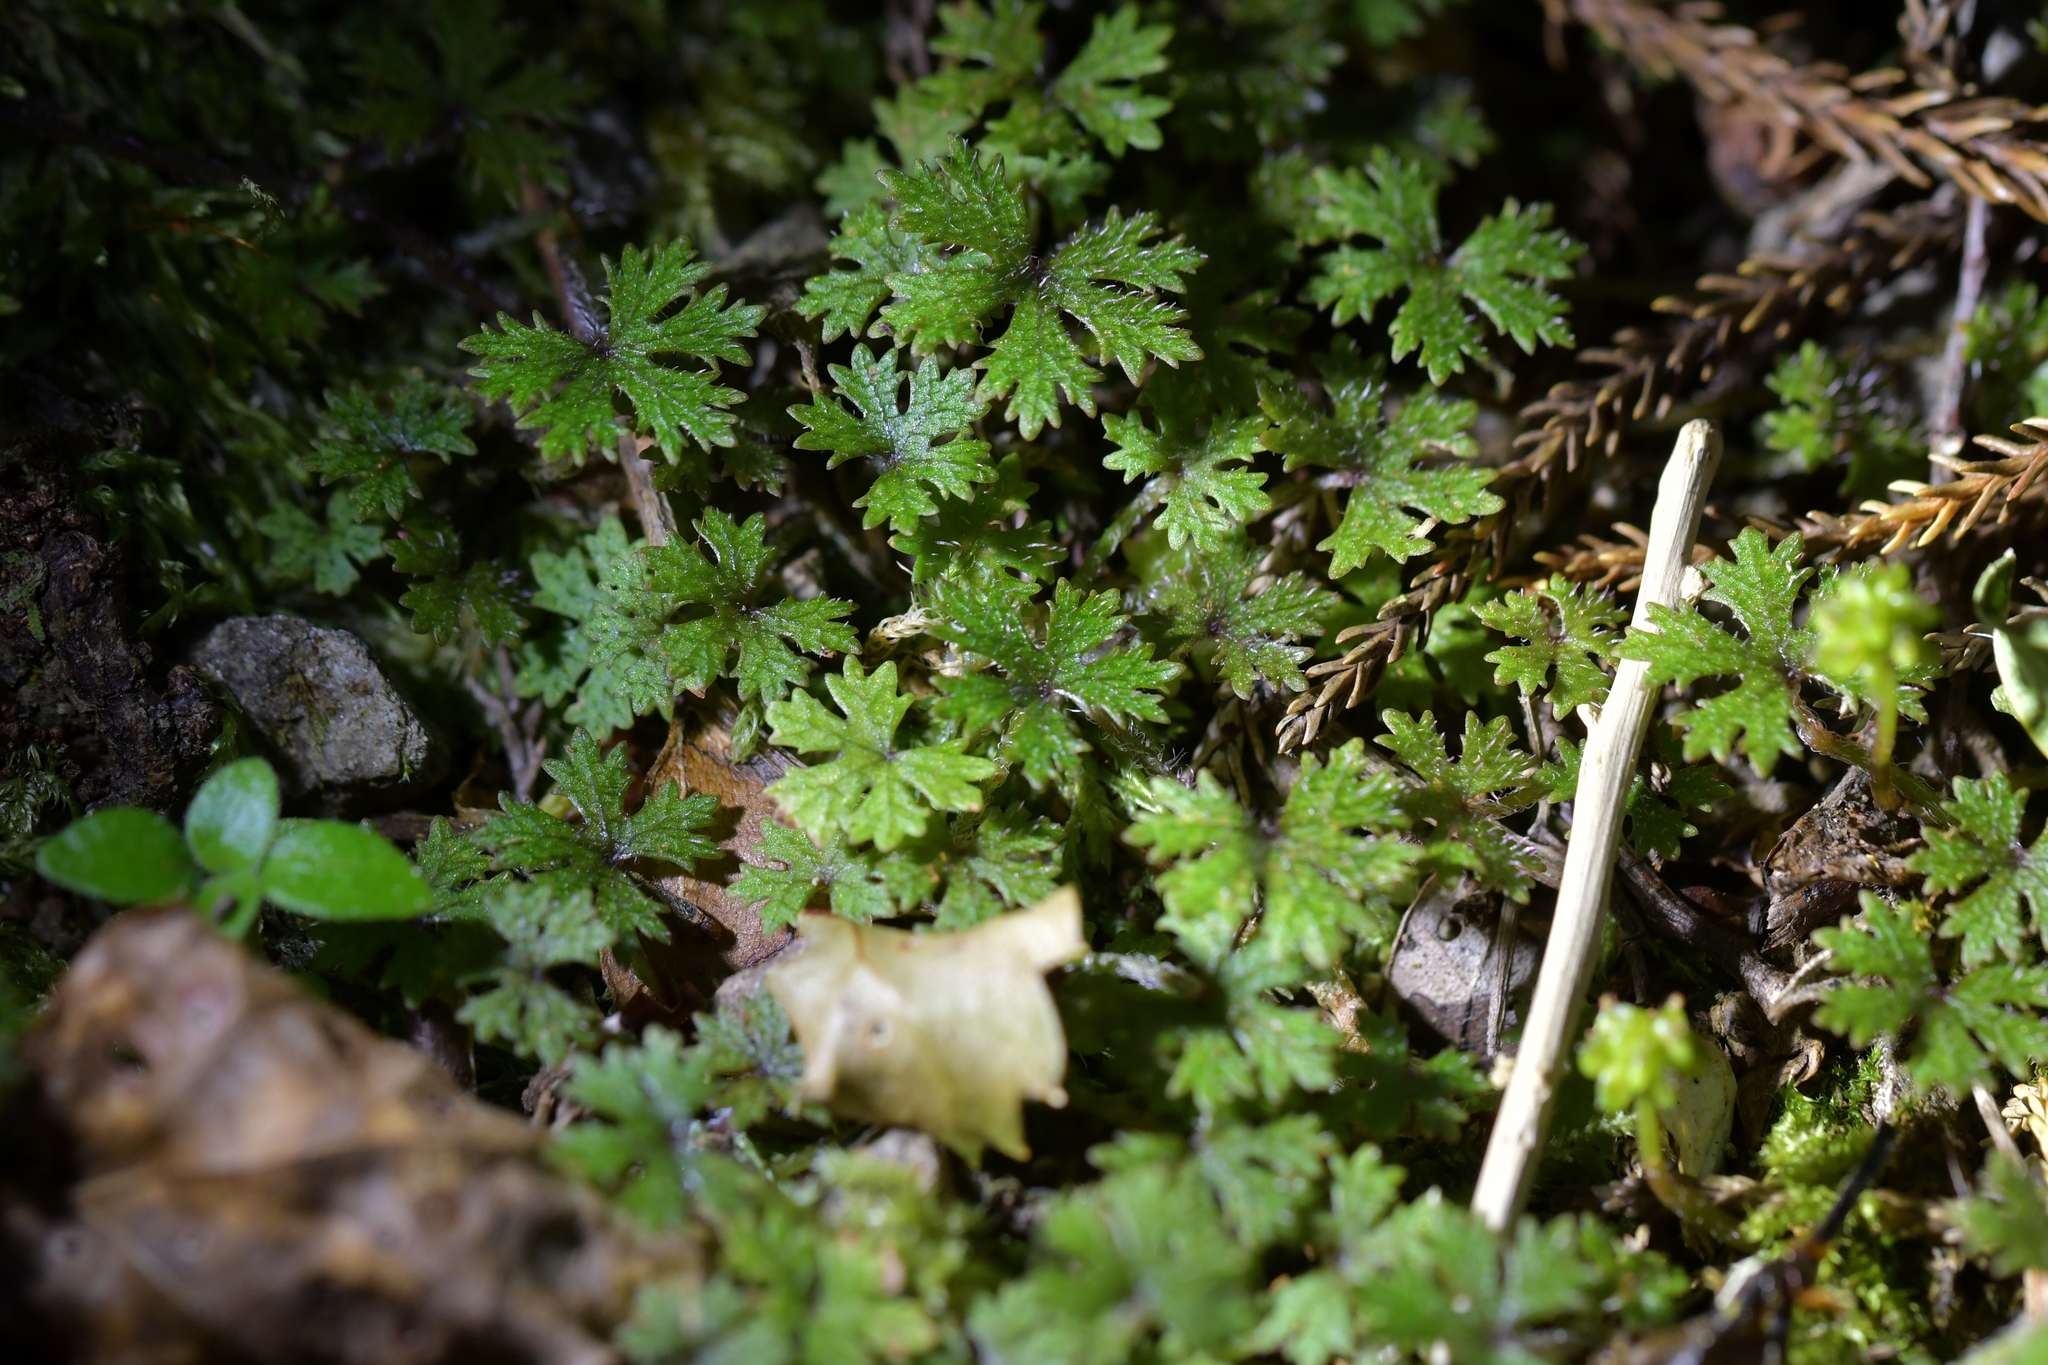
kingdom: Plantae
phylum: Tracheophyta
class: Magnoliopsida
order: Apiales
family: Araliaceae
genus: Hydrocotyle
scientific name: Hydrocotyle dissecta
